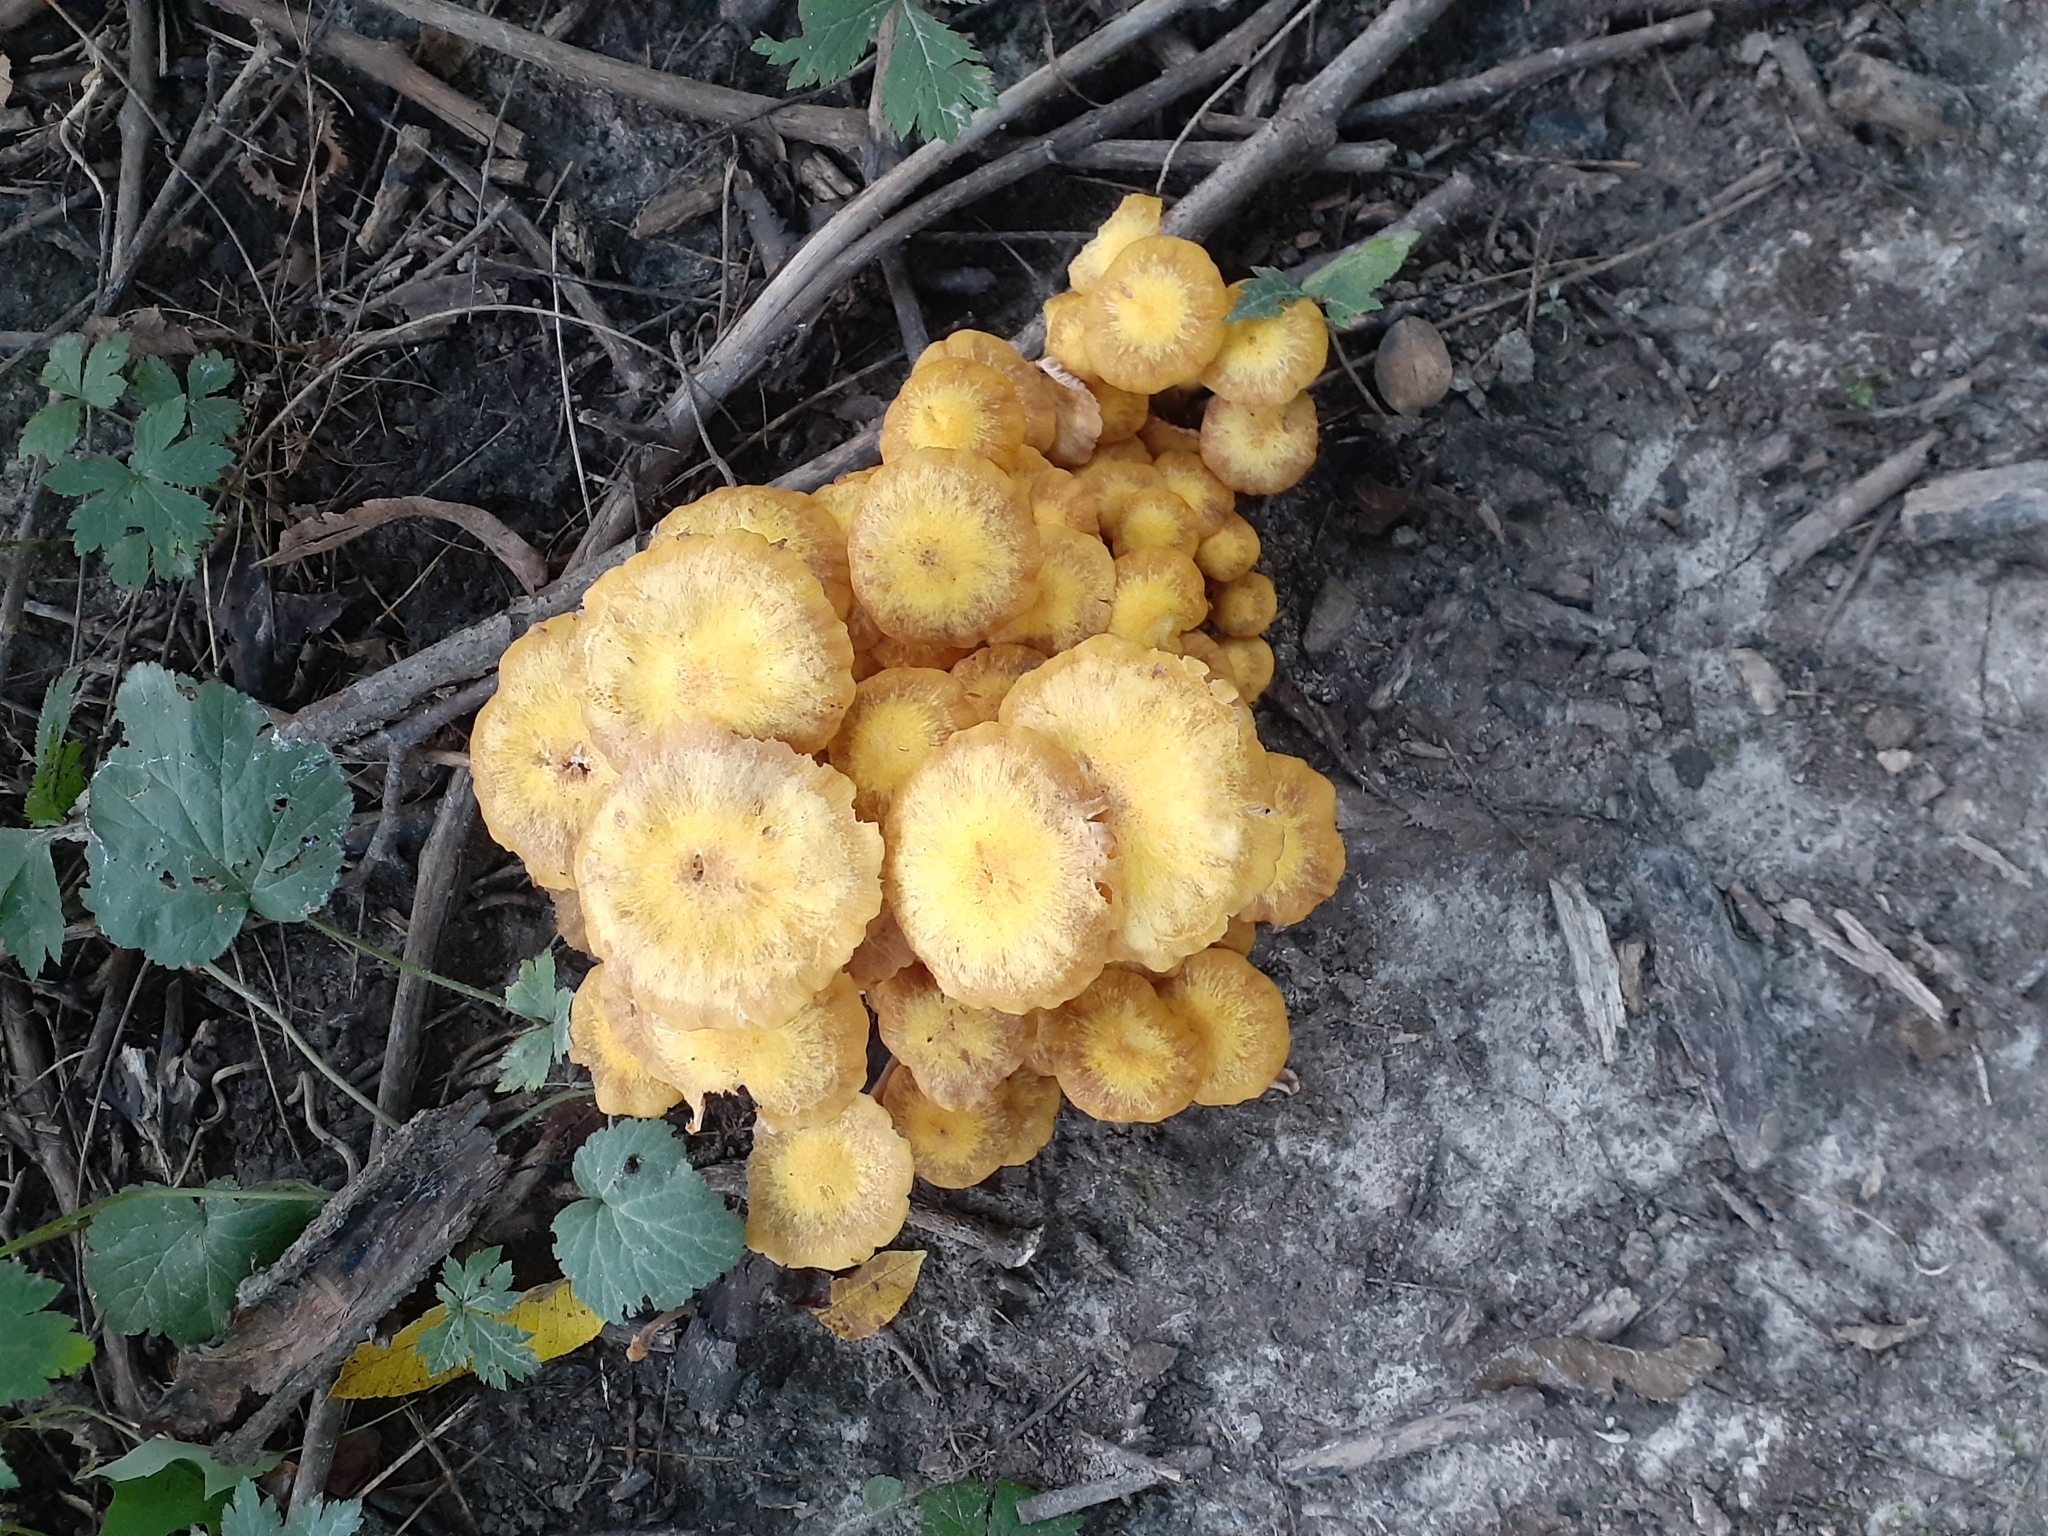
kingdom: Fungi
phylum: Basidiomycota
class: Agaricomycetes
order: Agaricales
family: Physalacriaceae
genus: Desarmillaria
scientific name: Desarmillaria caespitosa
